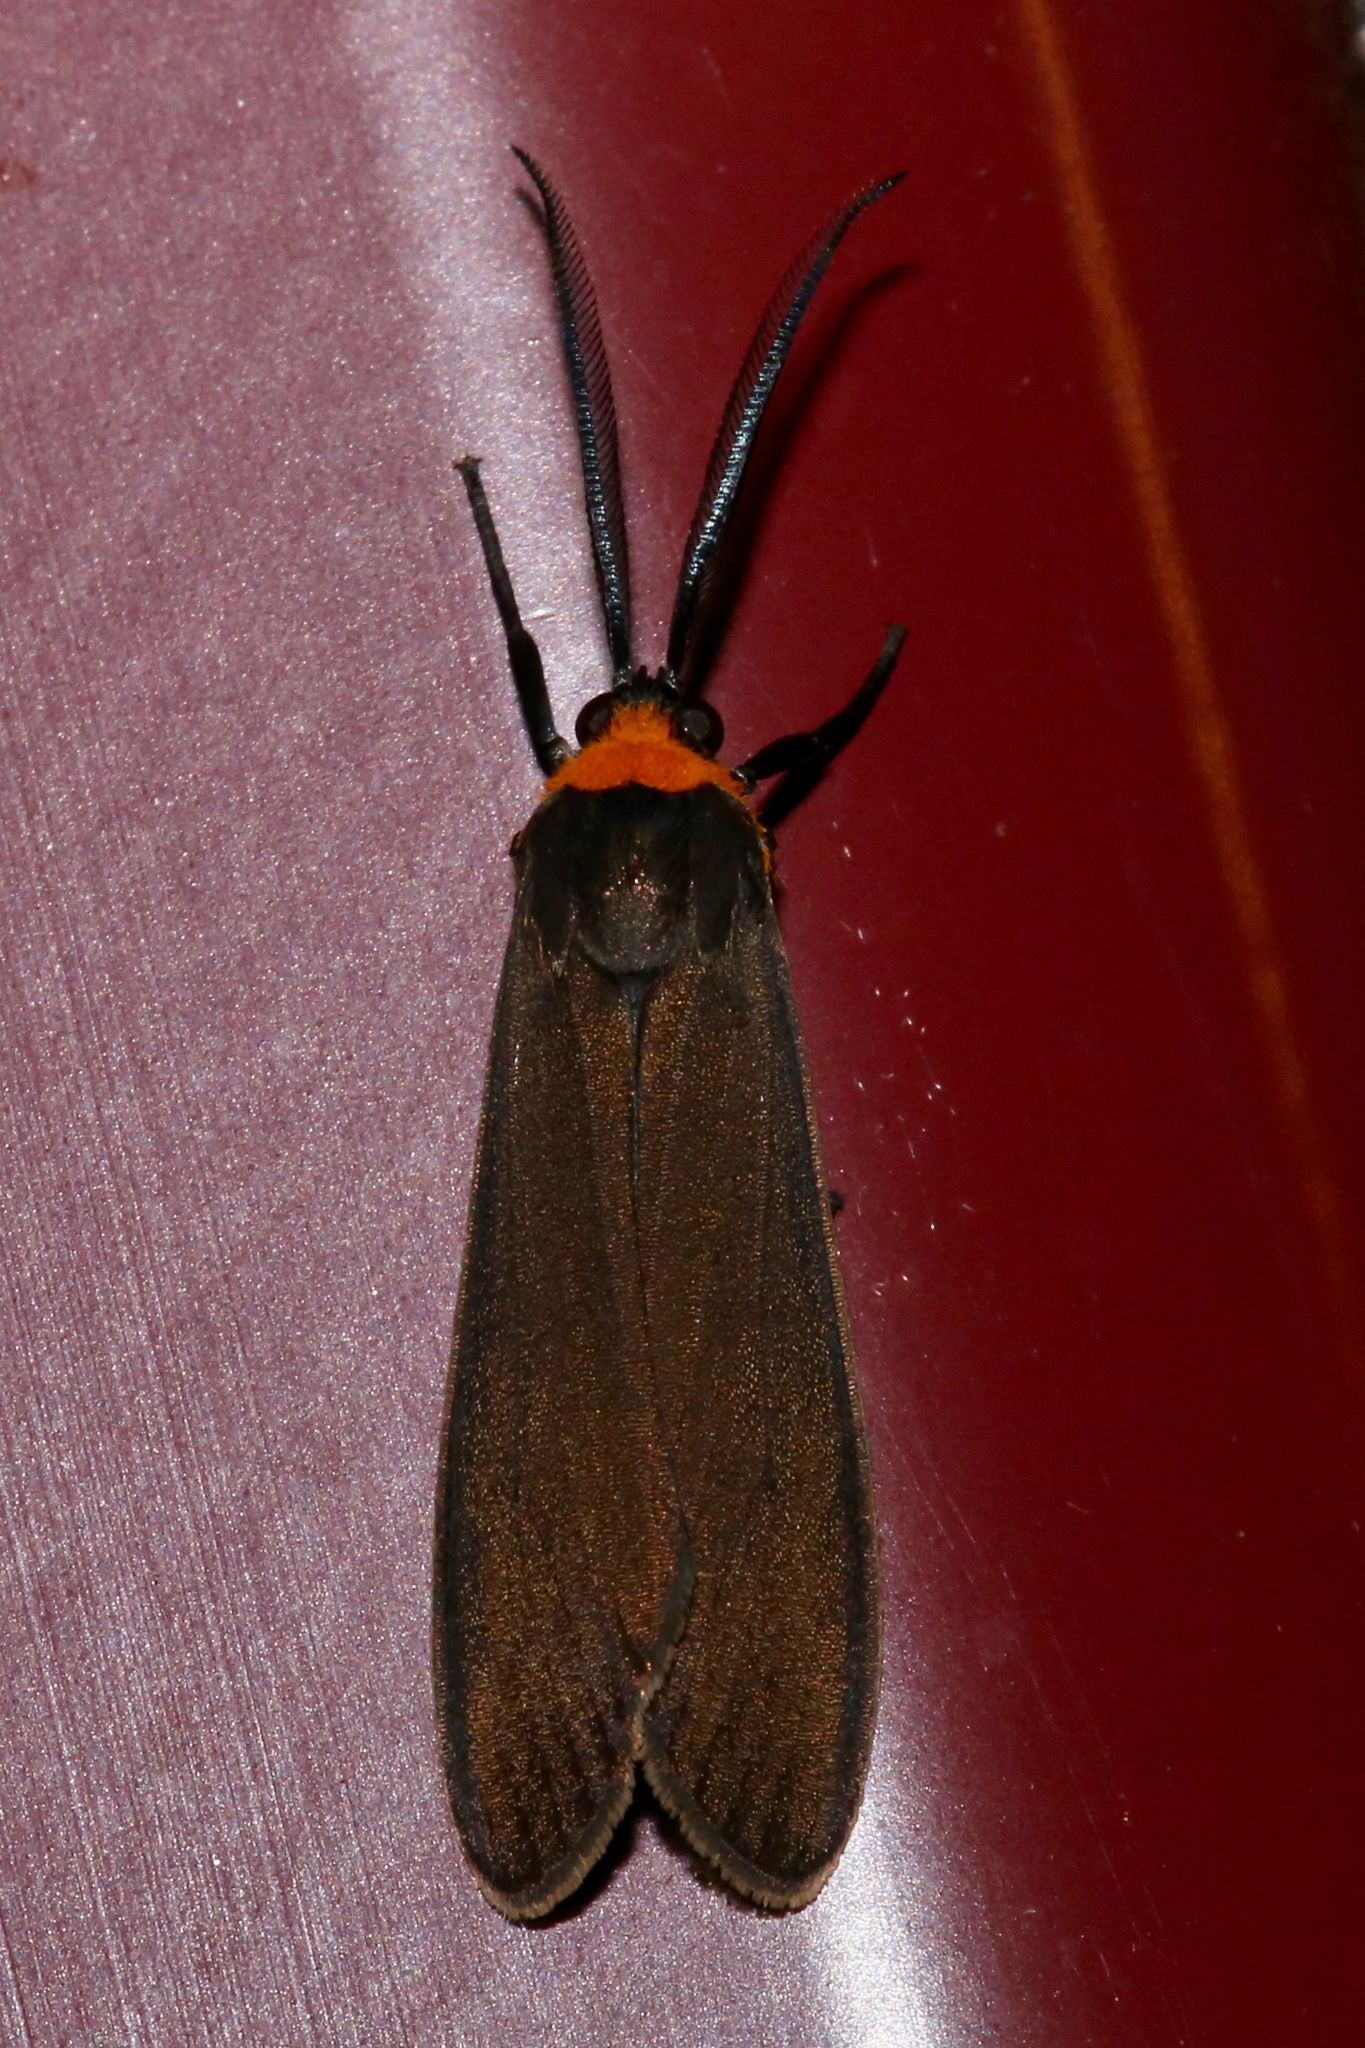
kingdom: Animalia
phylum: Arthropoda
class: Insecta
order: Lepidoptera
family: Erebidae
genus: Cisseps
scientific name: Cisseps fulvicollis
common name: Yellow-collared scape moth
